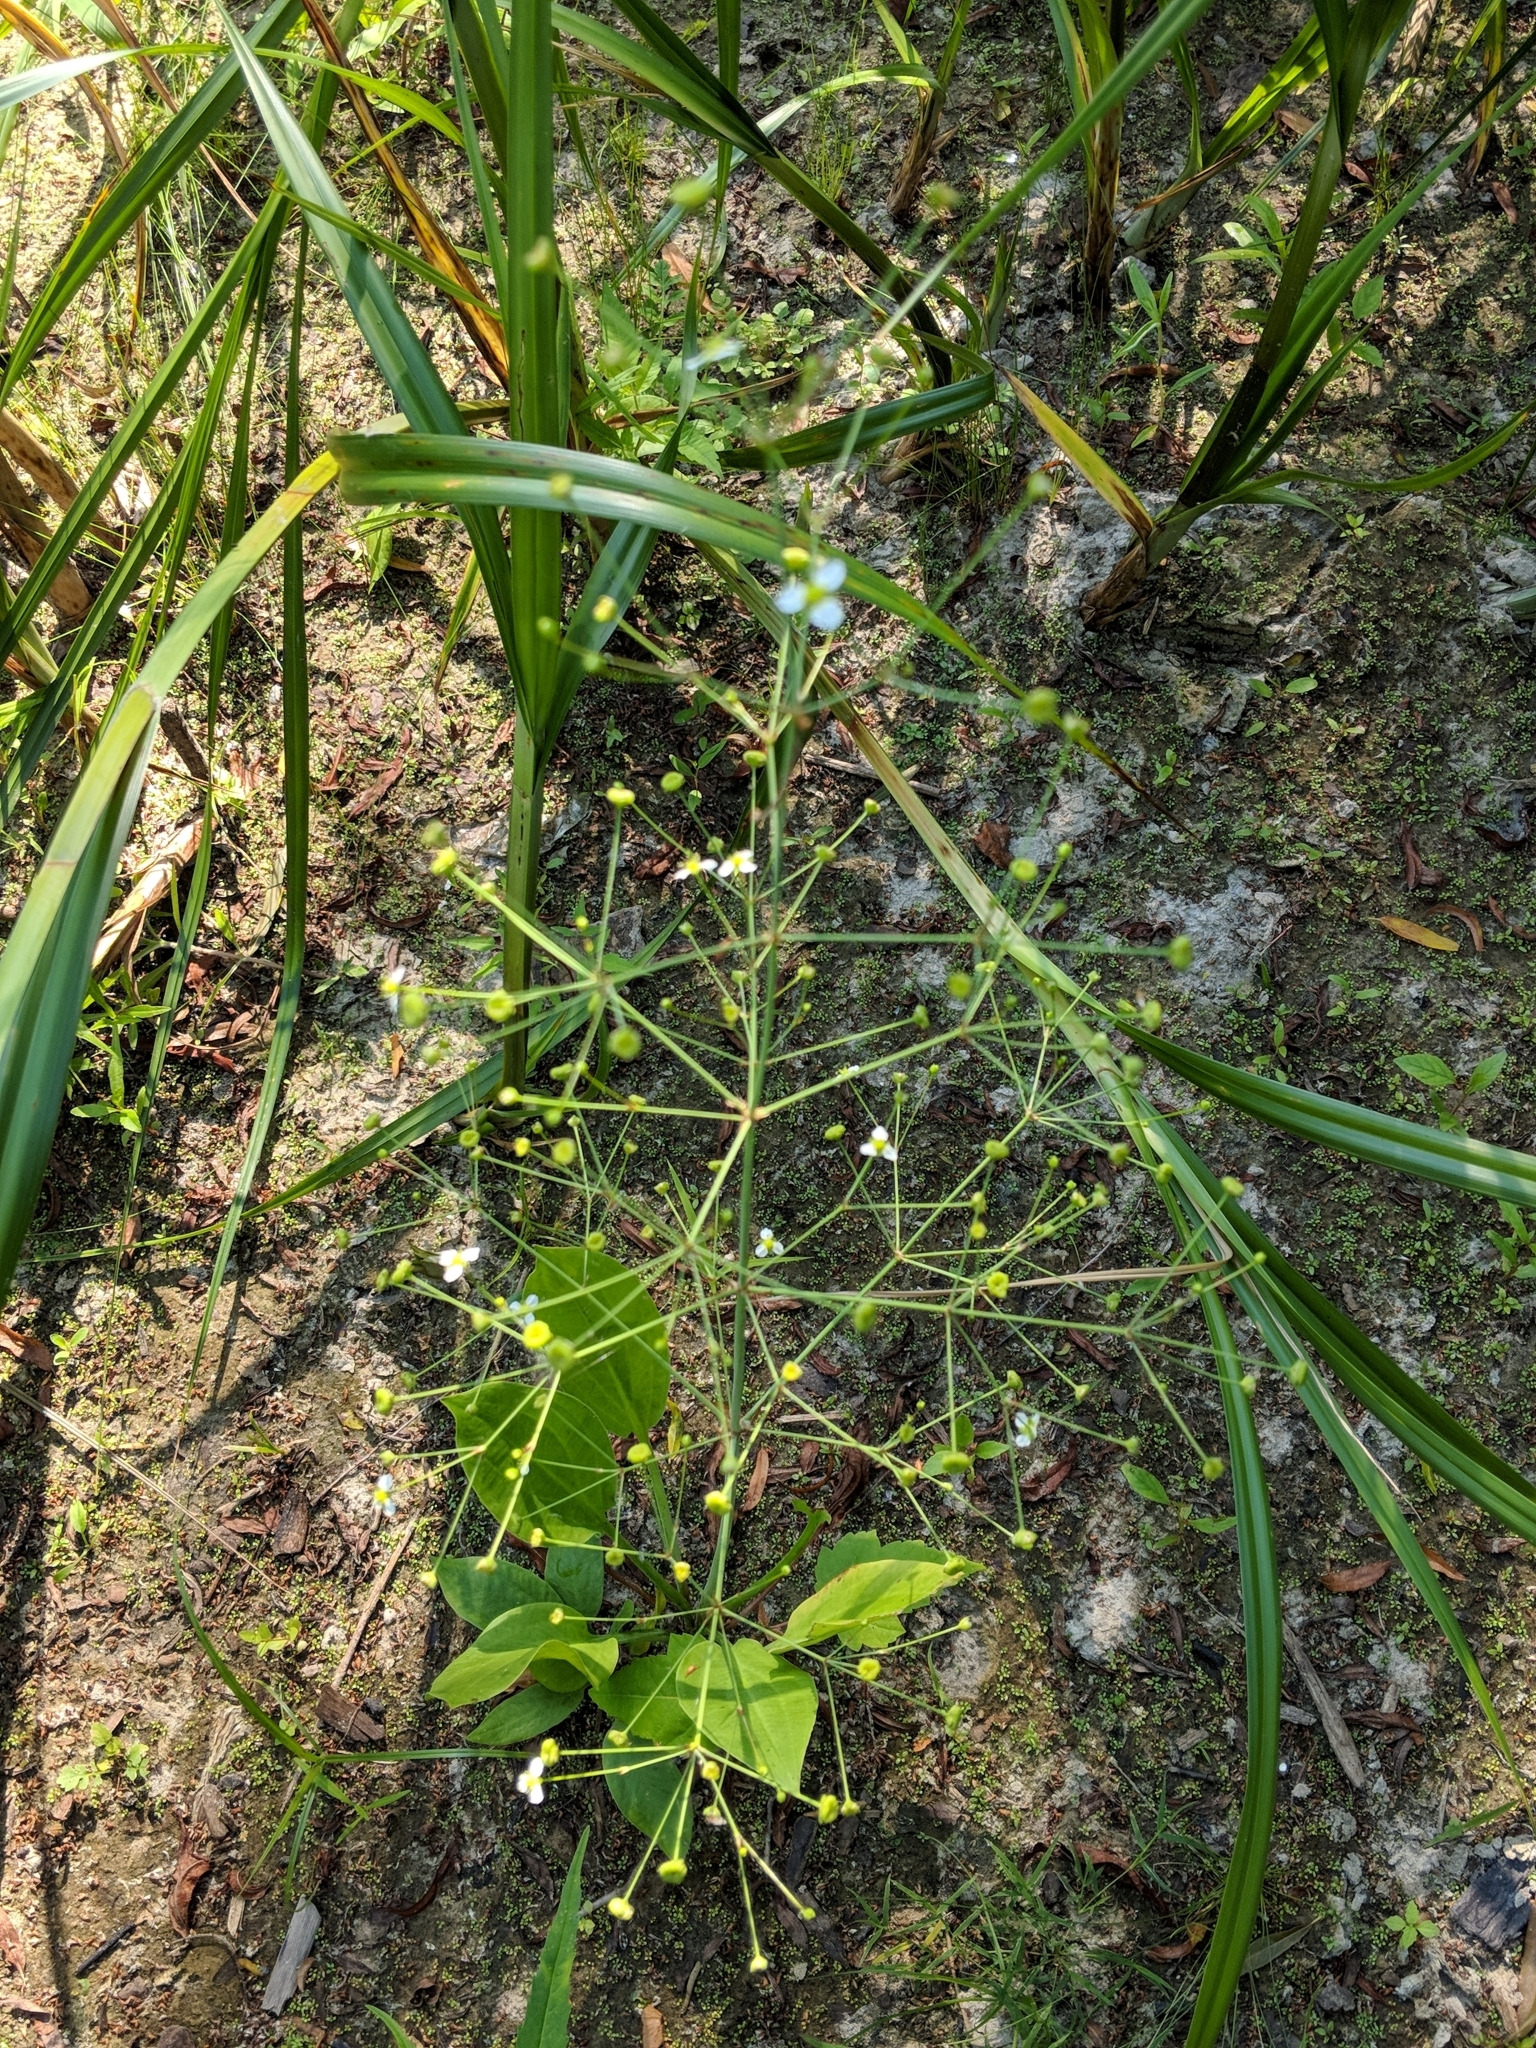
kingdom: Plantae
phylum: Tracheophyta
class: Liliopsida
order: Alismatales
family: Alismataceae
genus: Alisma
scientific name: Alisma triviale
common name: Northern water-plantain
